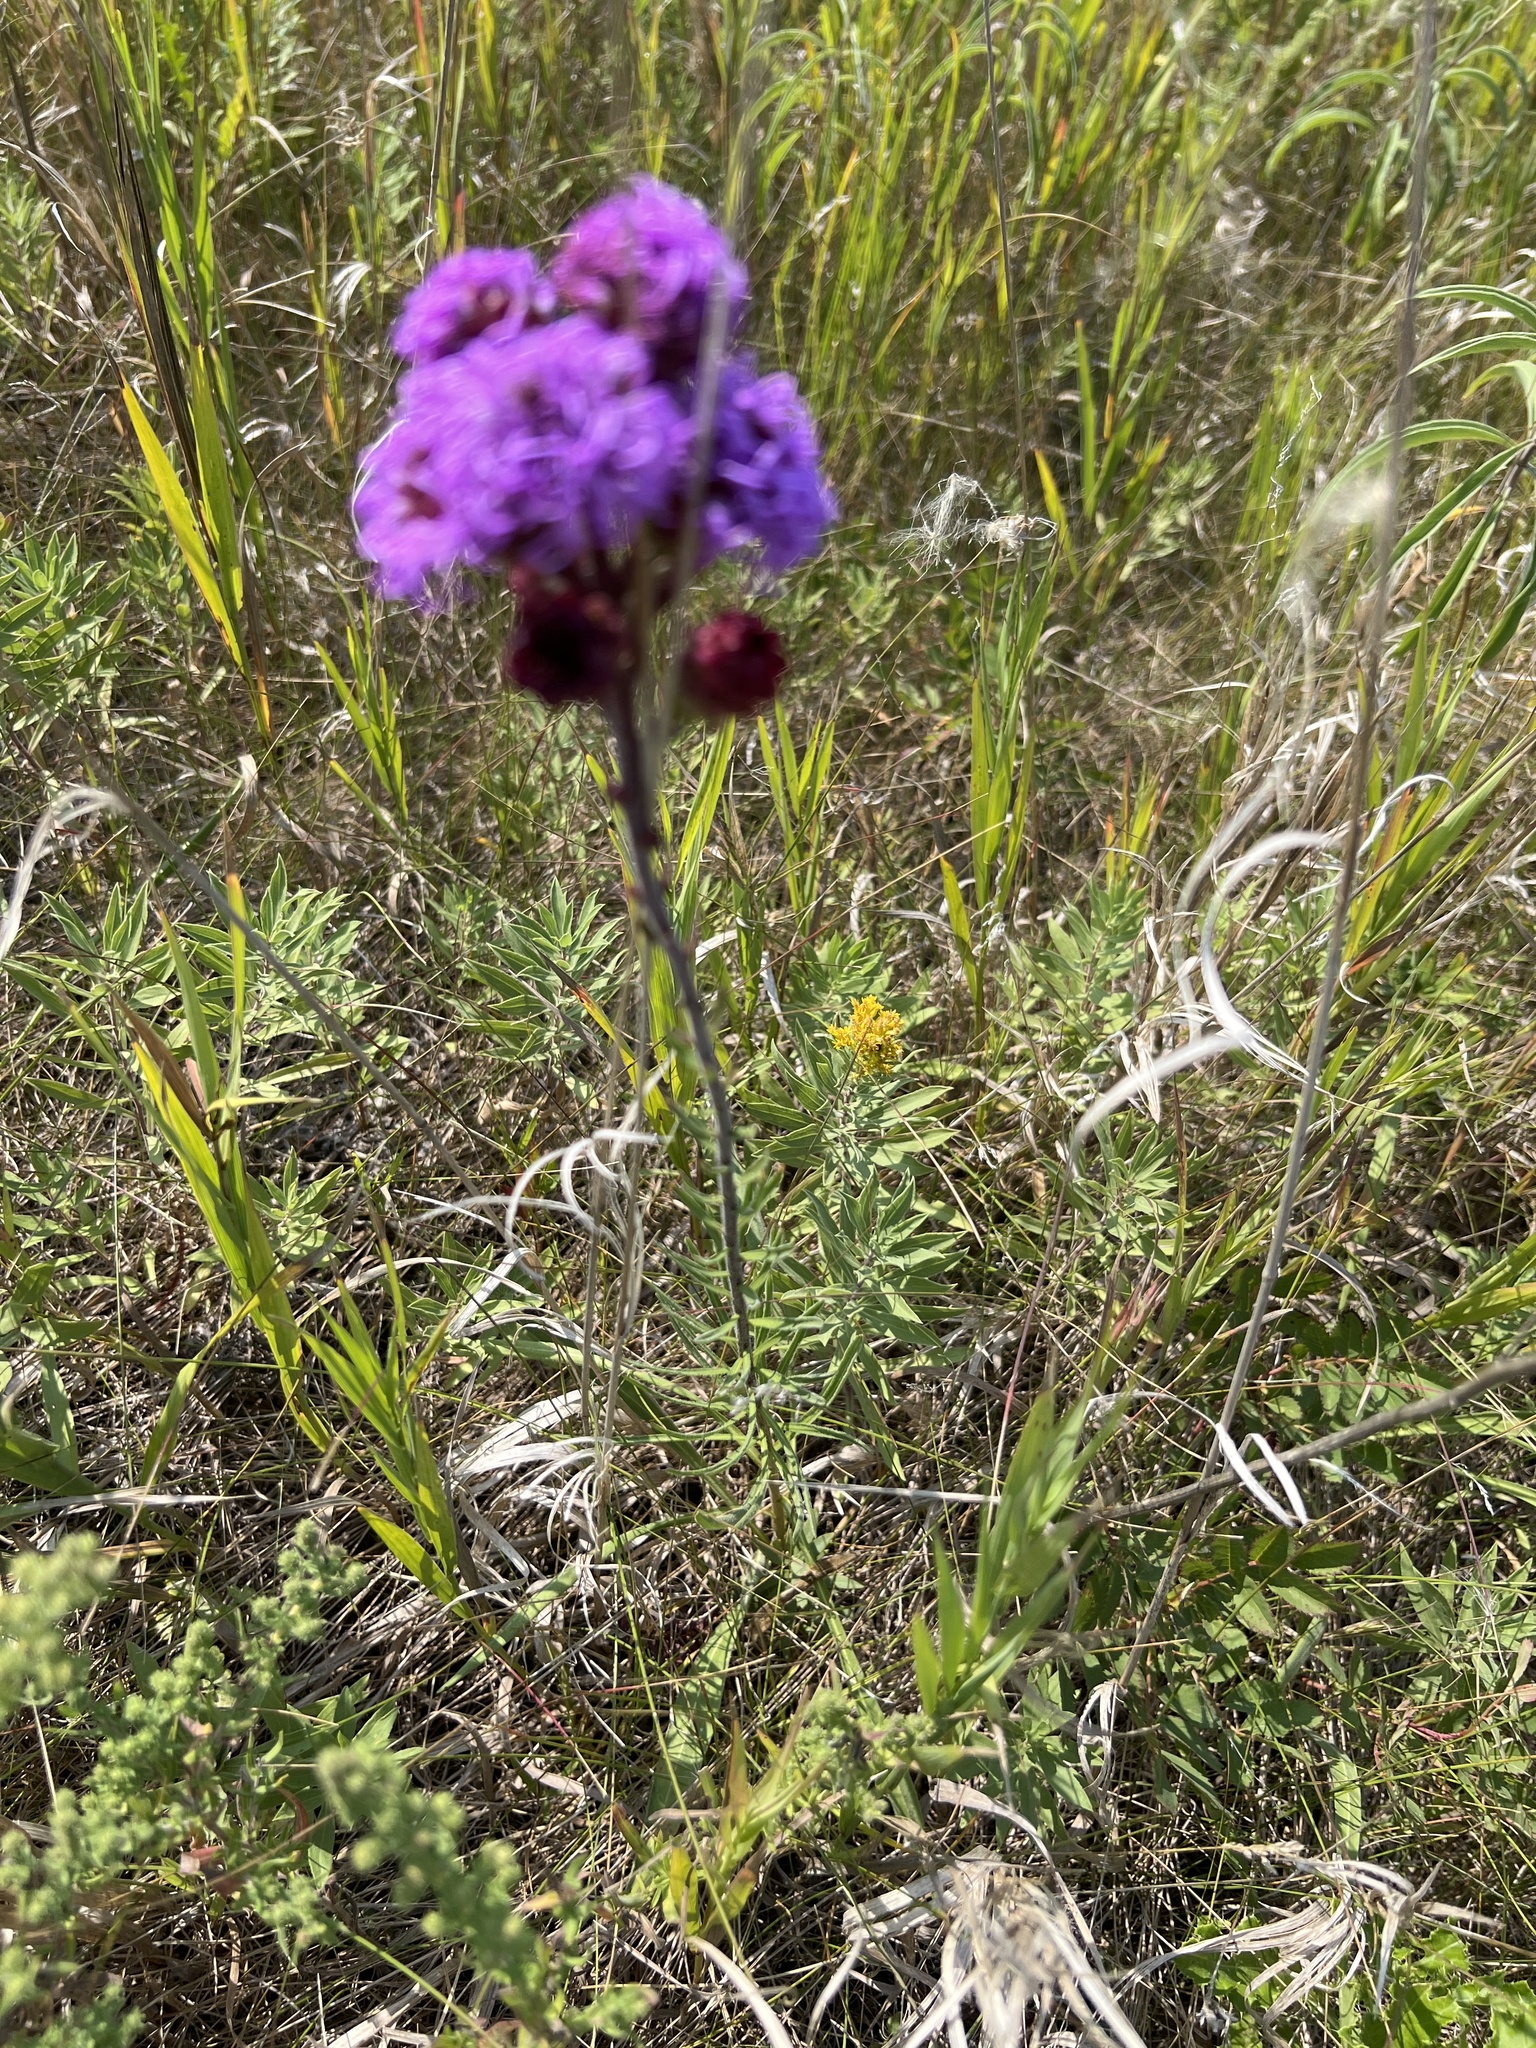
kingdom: Plantae
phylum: Tracheophyta
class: Magnoliopsida
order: Asterales
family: Asteraceae
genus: Liatris
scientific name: Liatris ligulistylis
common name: Northern plains gayfeather
